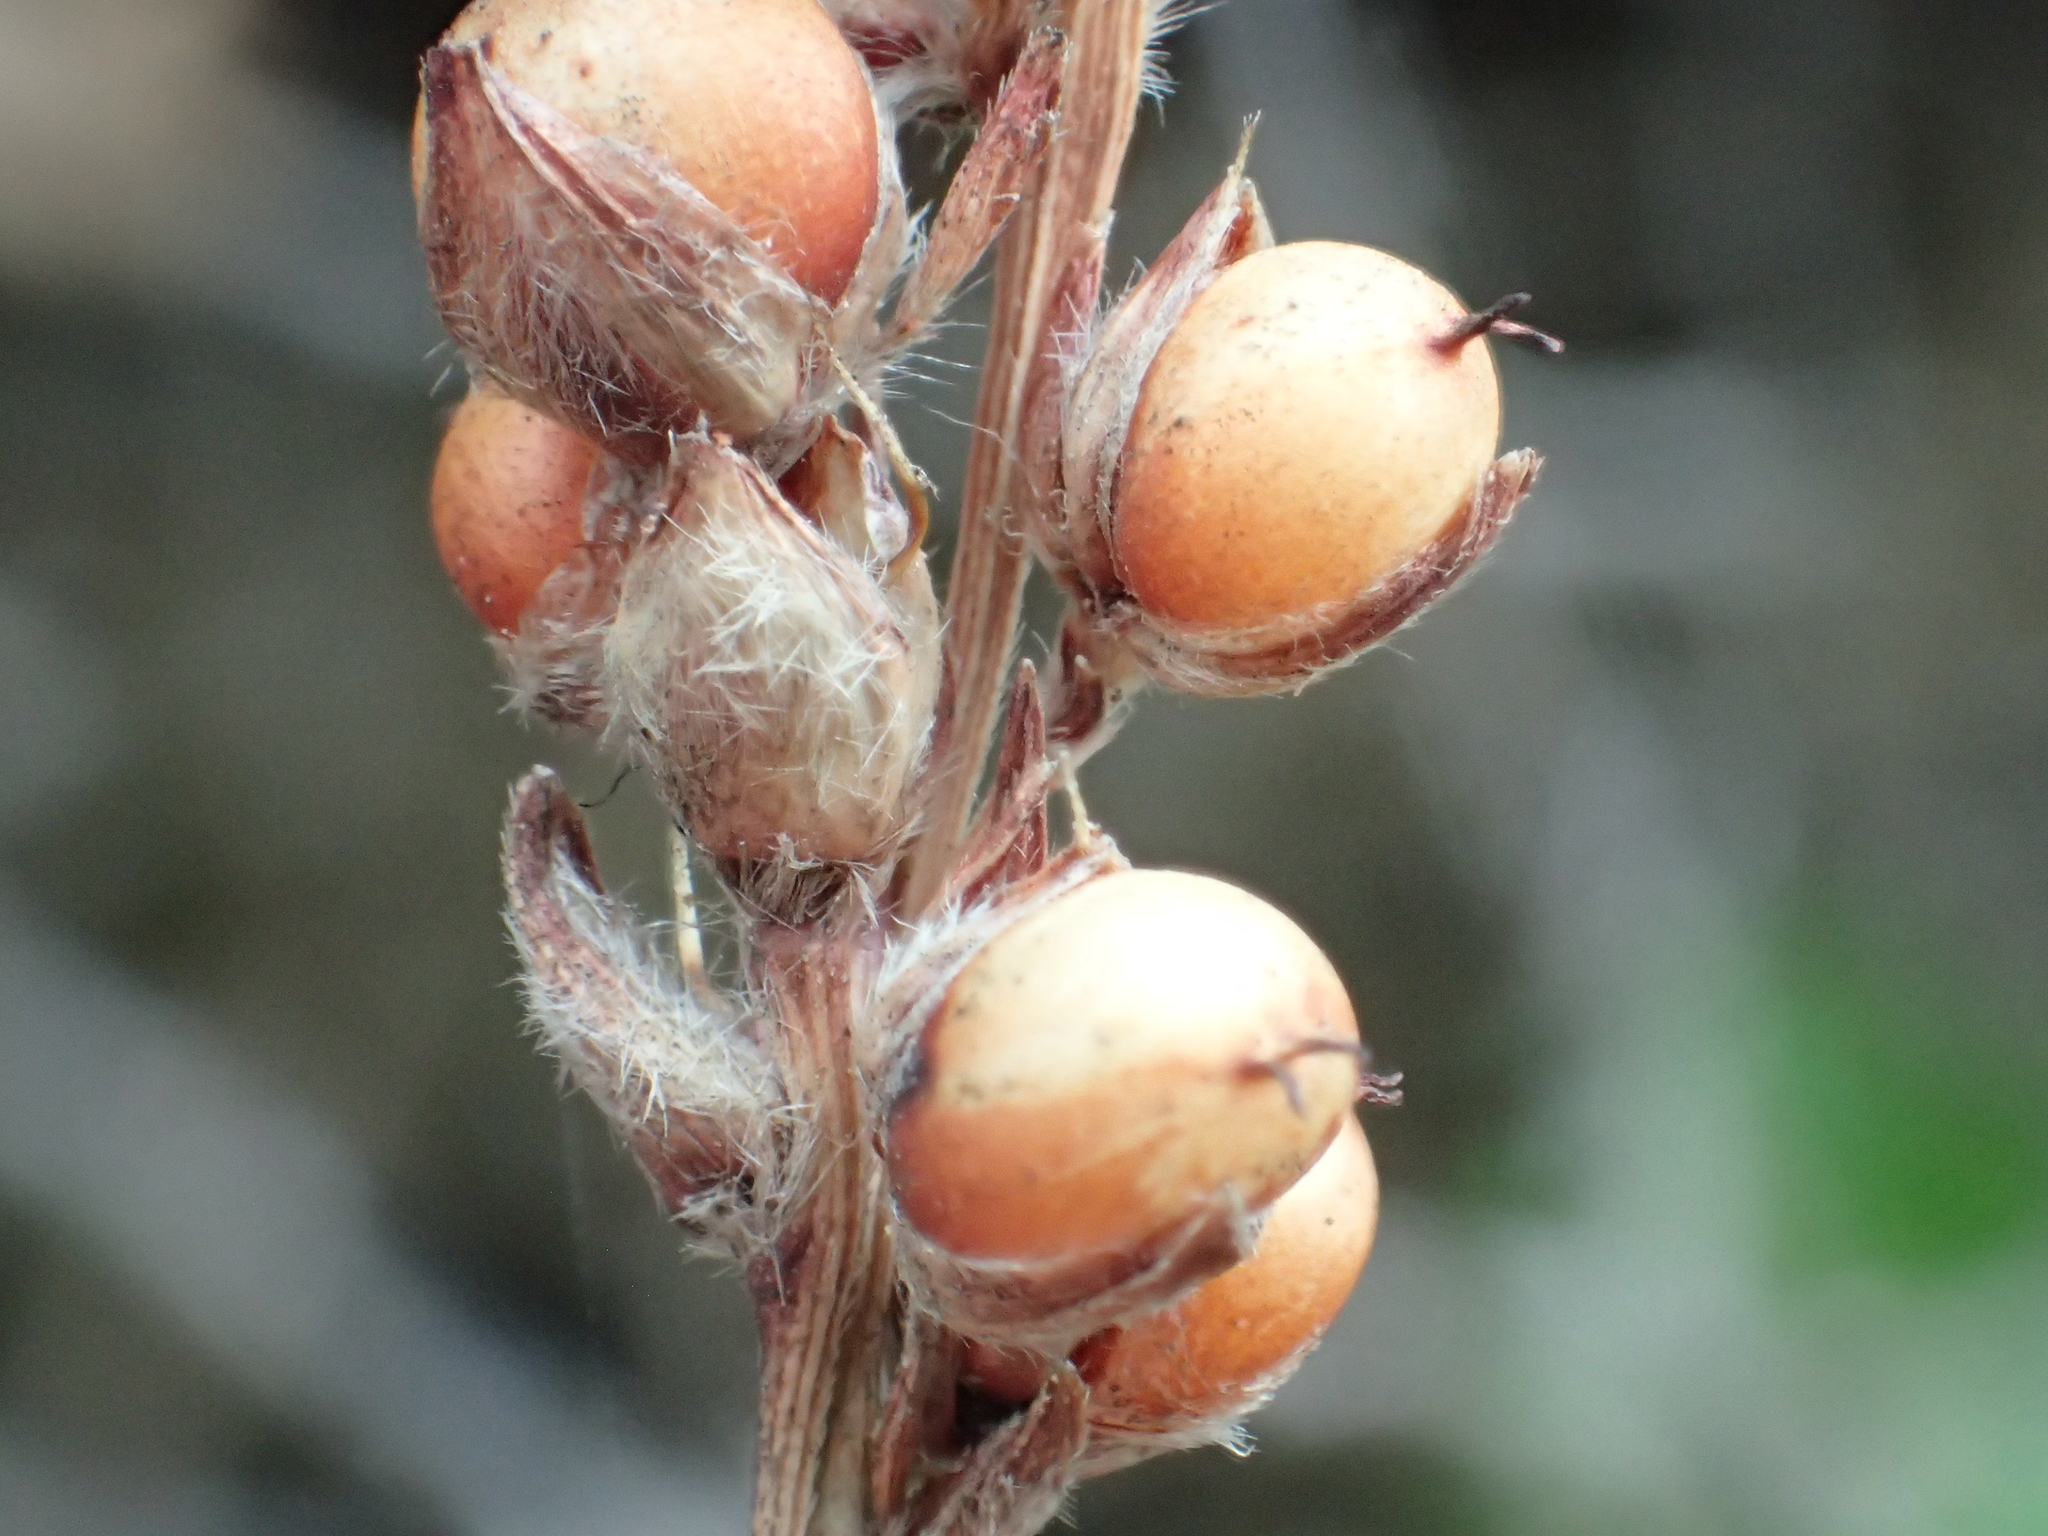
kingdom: Plantae
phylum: Tracheophyta
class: Liliopsida
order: Poales
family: Poaceae
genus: Sorghum
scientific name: Sorghum bicolor
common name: Sorghum
